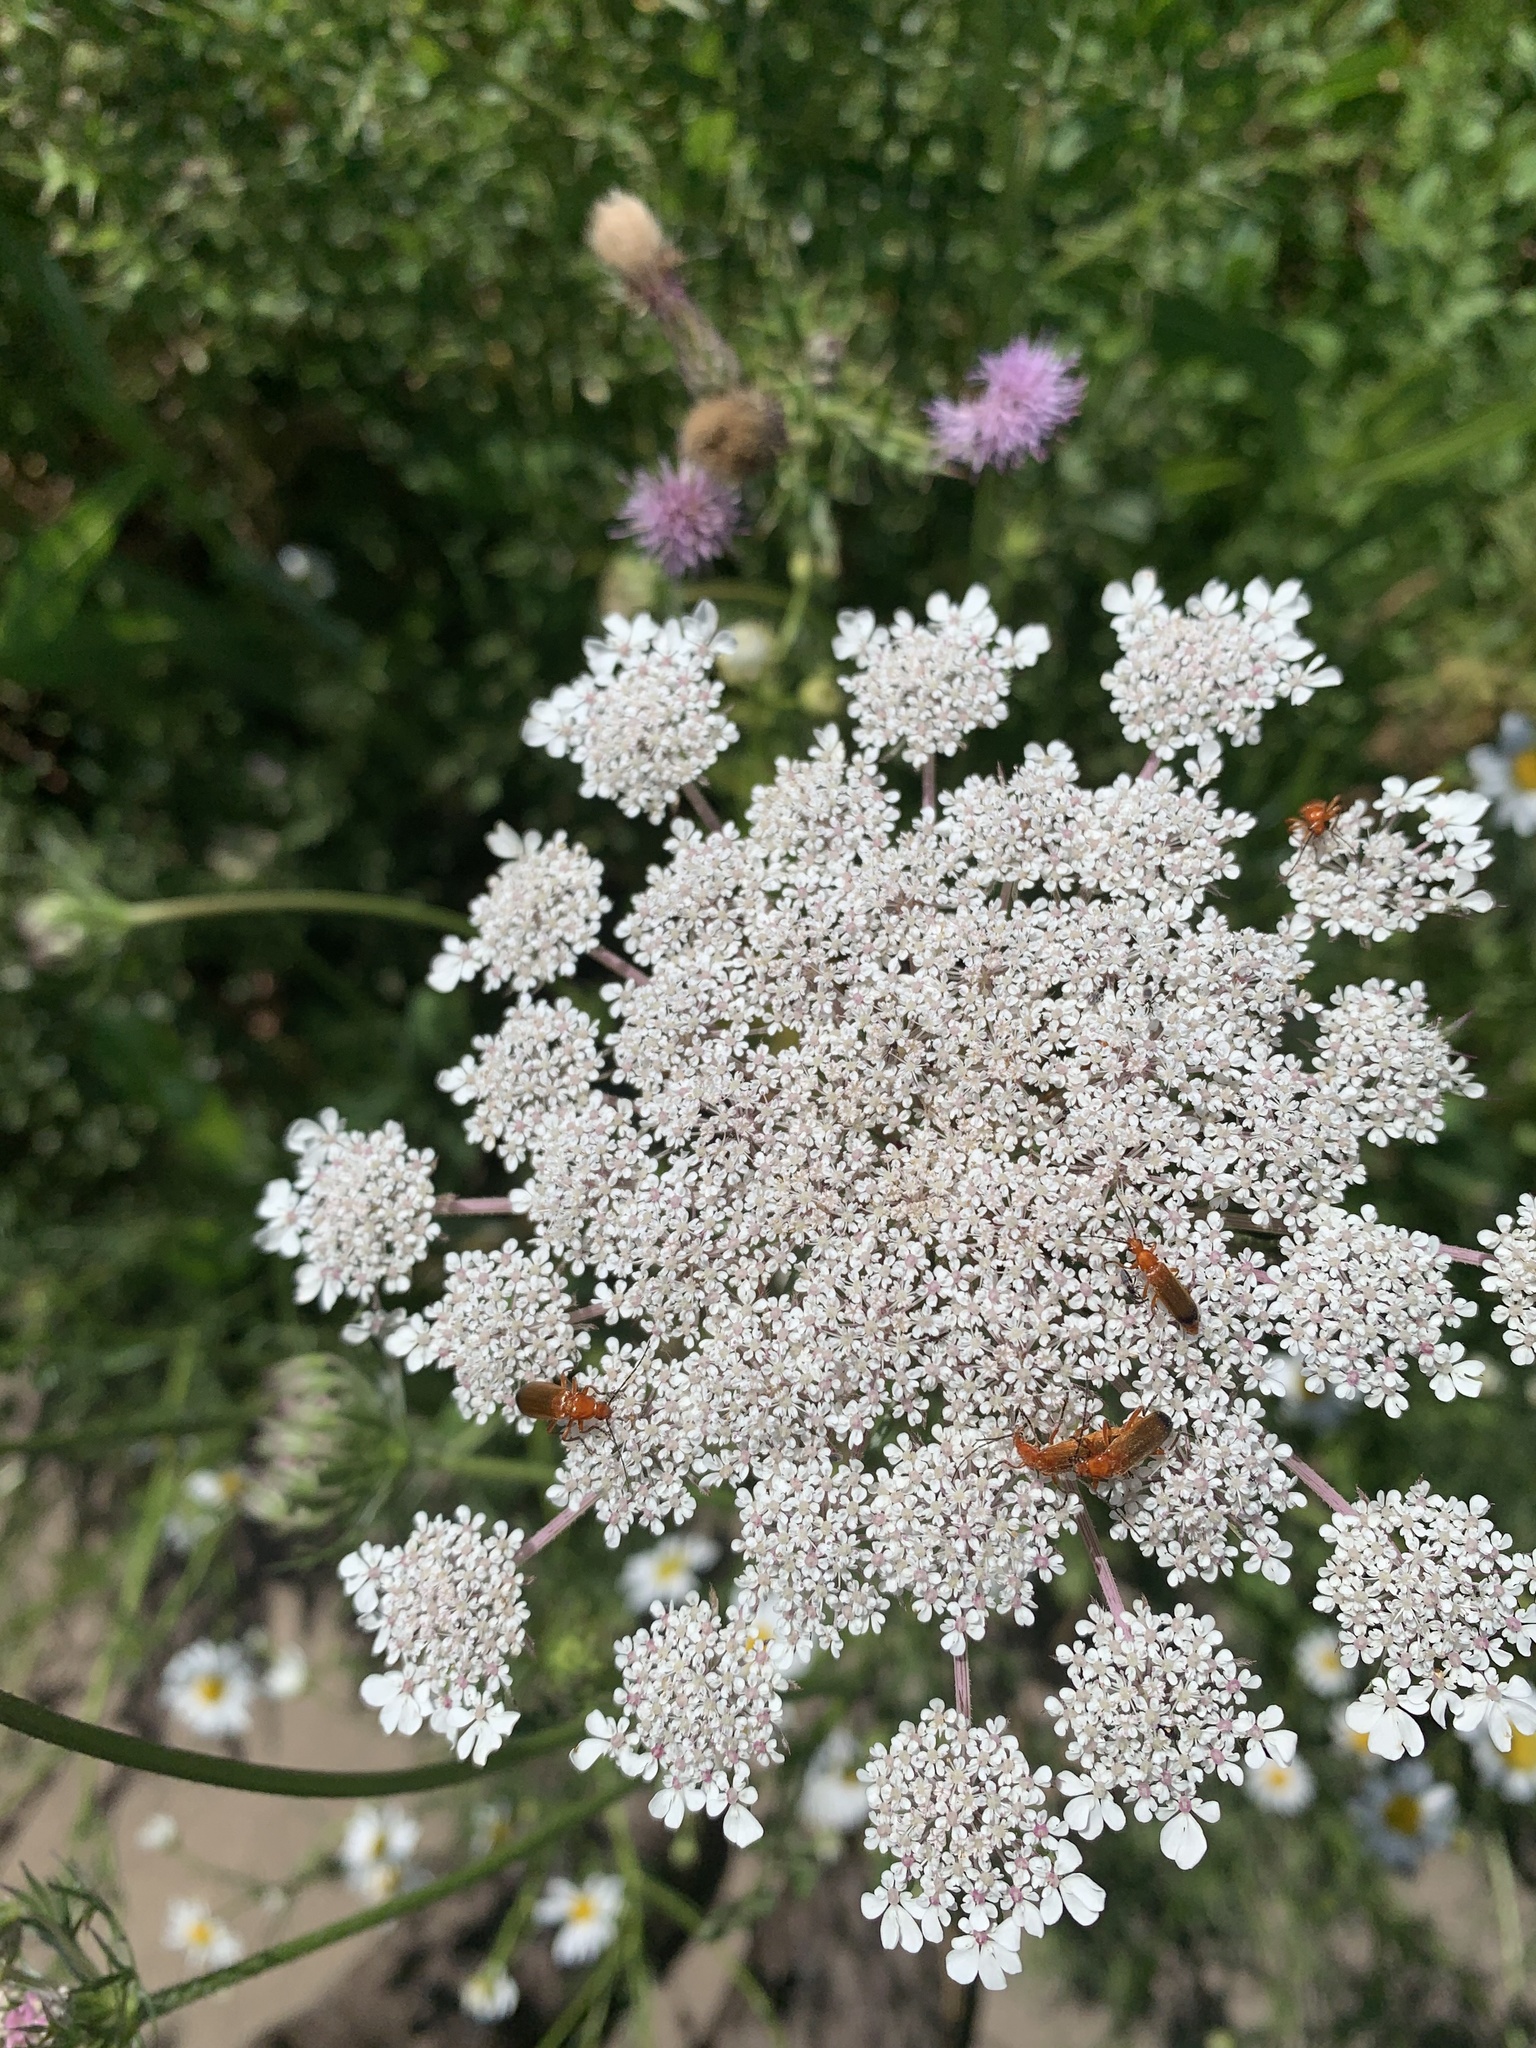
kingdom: Animalia
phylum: Arthropoda
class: Insecta
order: Coleoptera
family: Cantharidae
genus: Rhagonycha
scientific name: Rhagonycha fulva
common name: Common red soldier beetle
